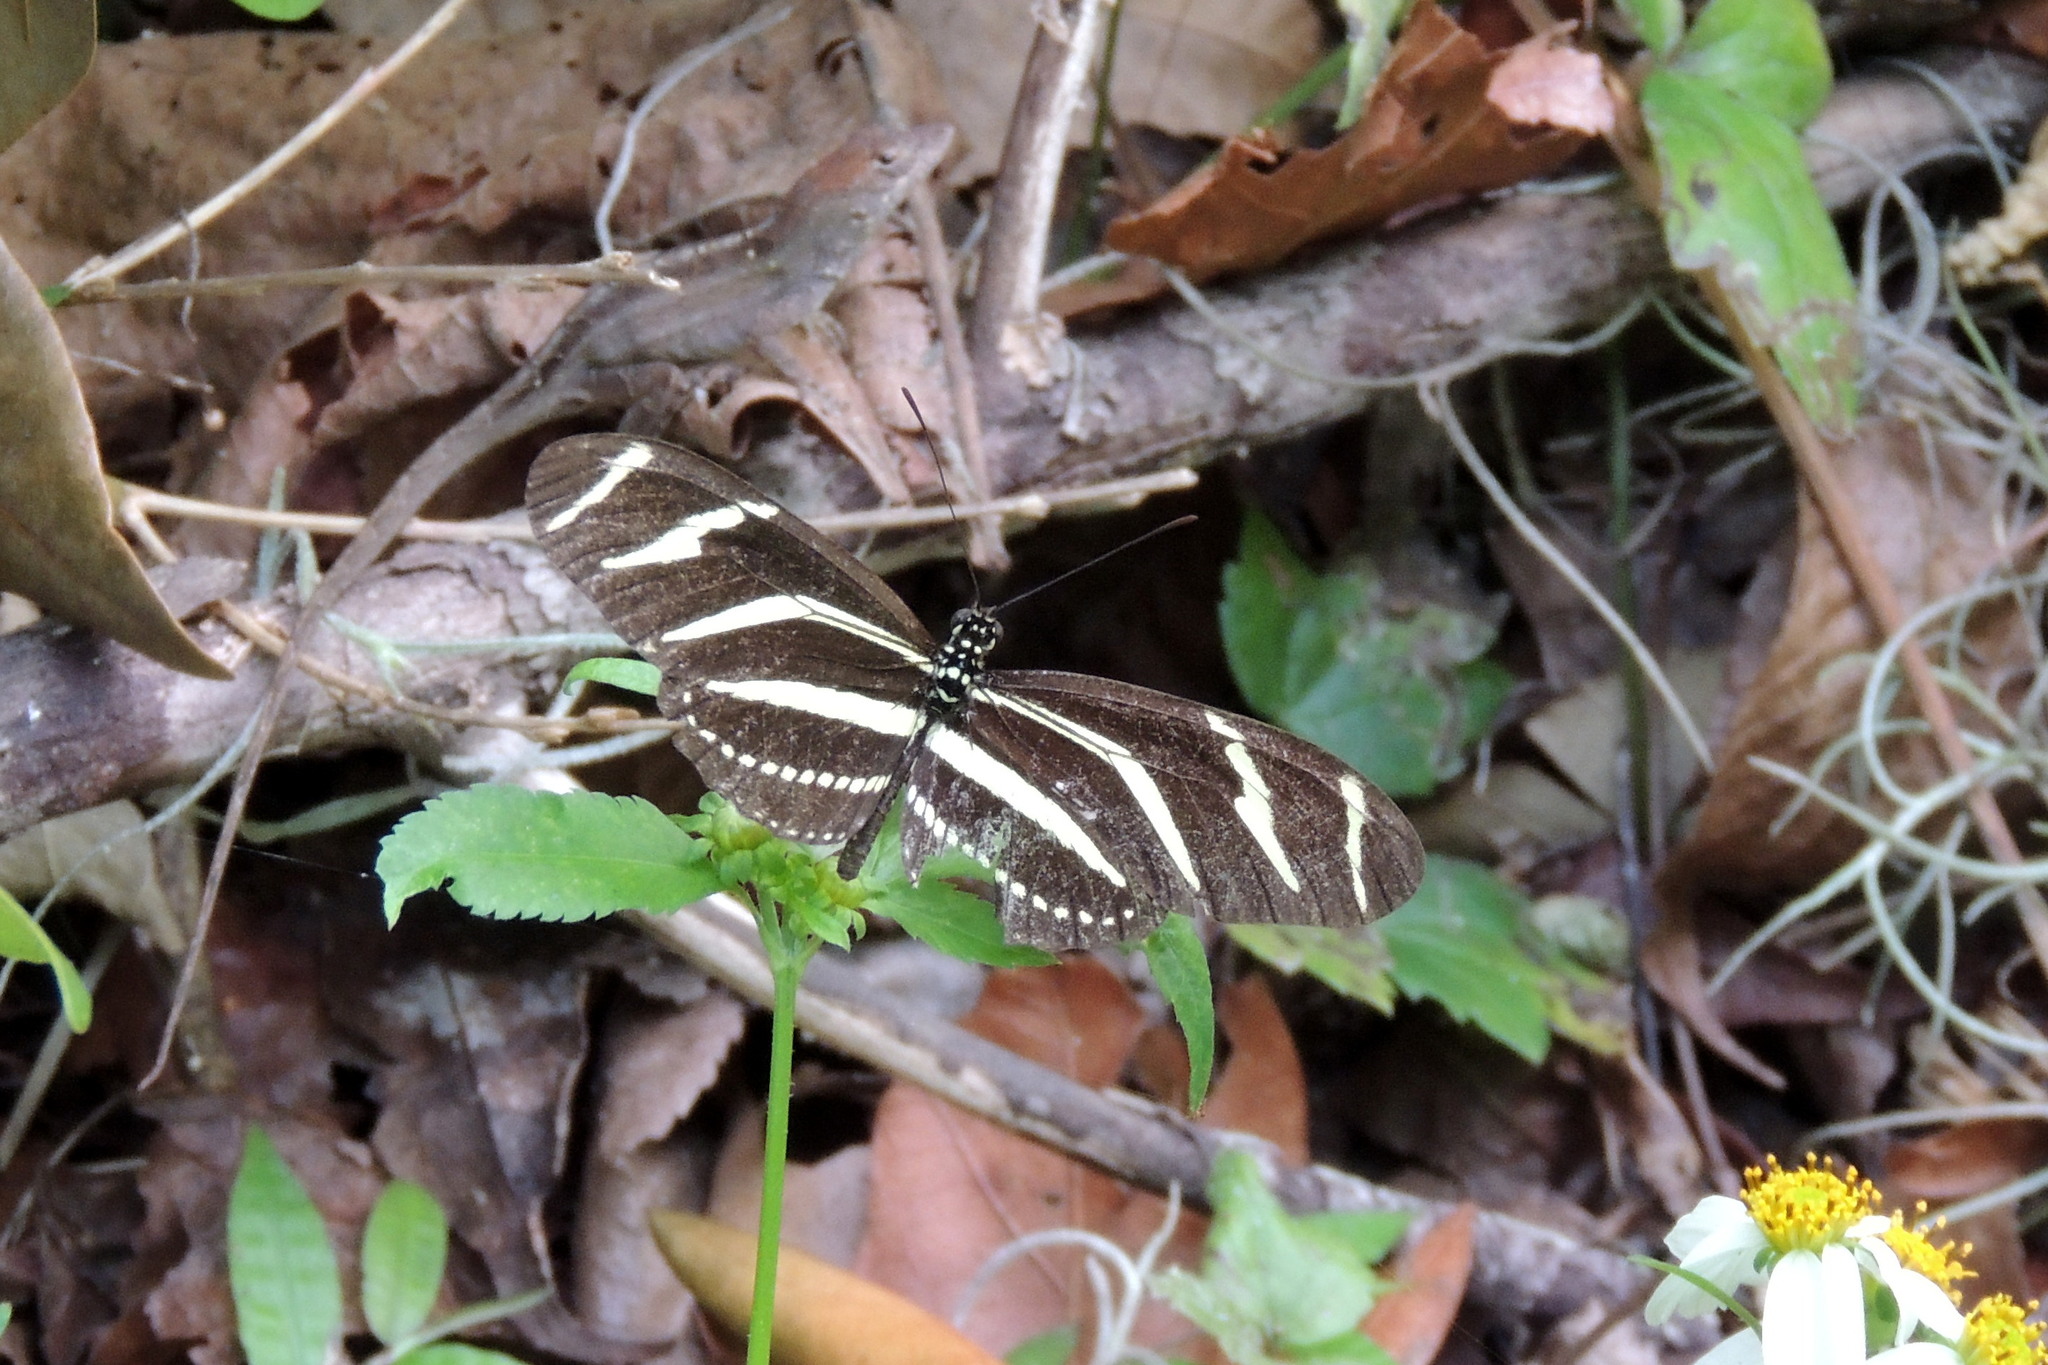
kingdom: Animalia
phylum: Arthropoda
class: Insecta
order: Lepidoptera
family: Nymphalidae
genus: Heliconius
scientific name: Heliconius charithonia
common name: Zebra long wing
